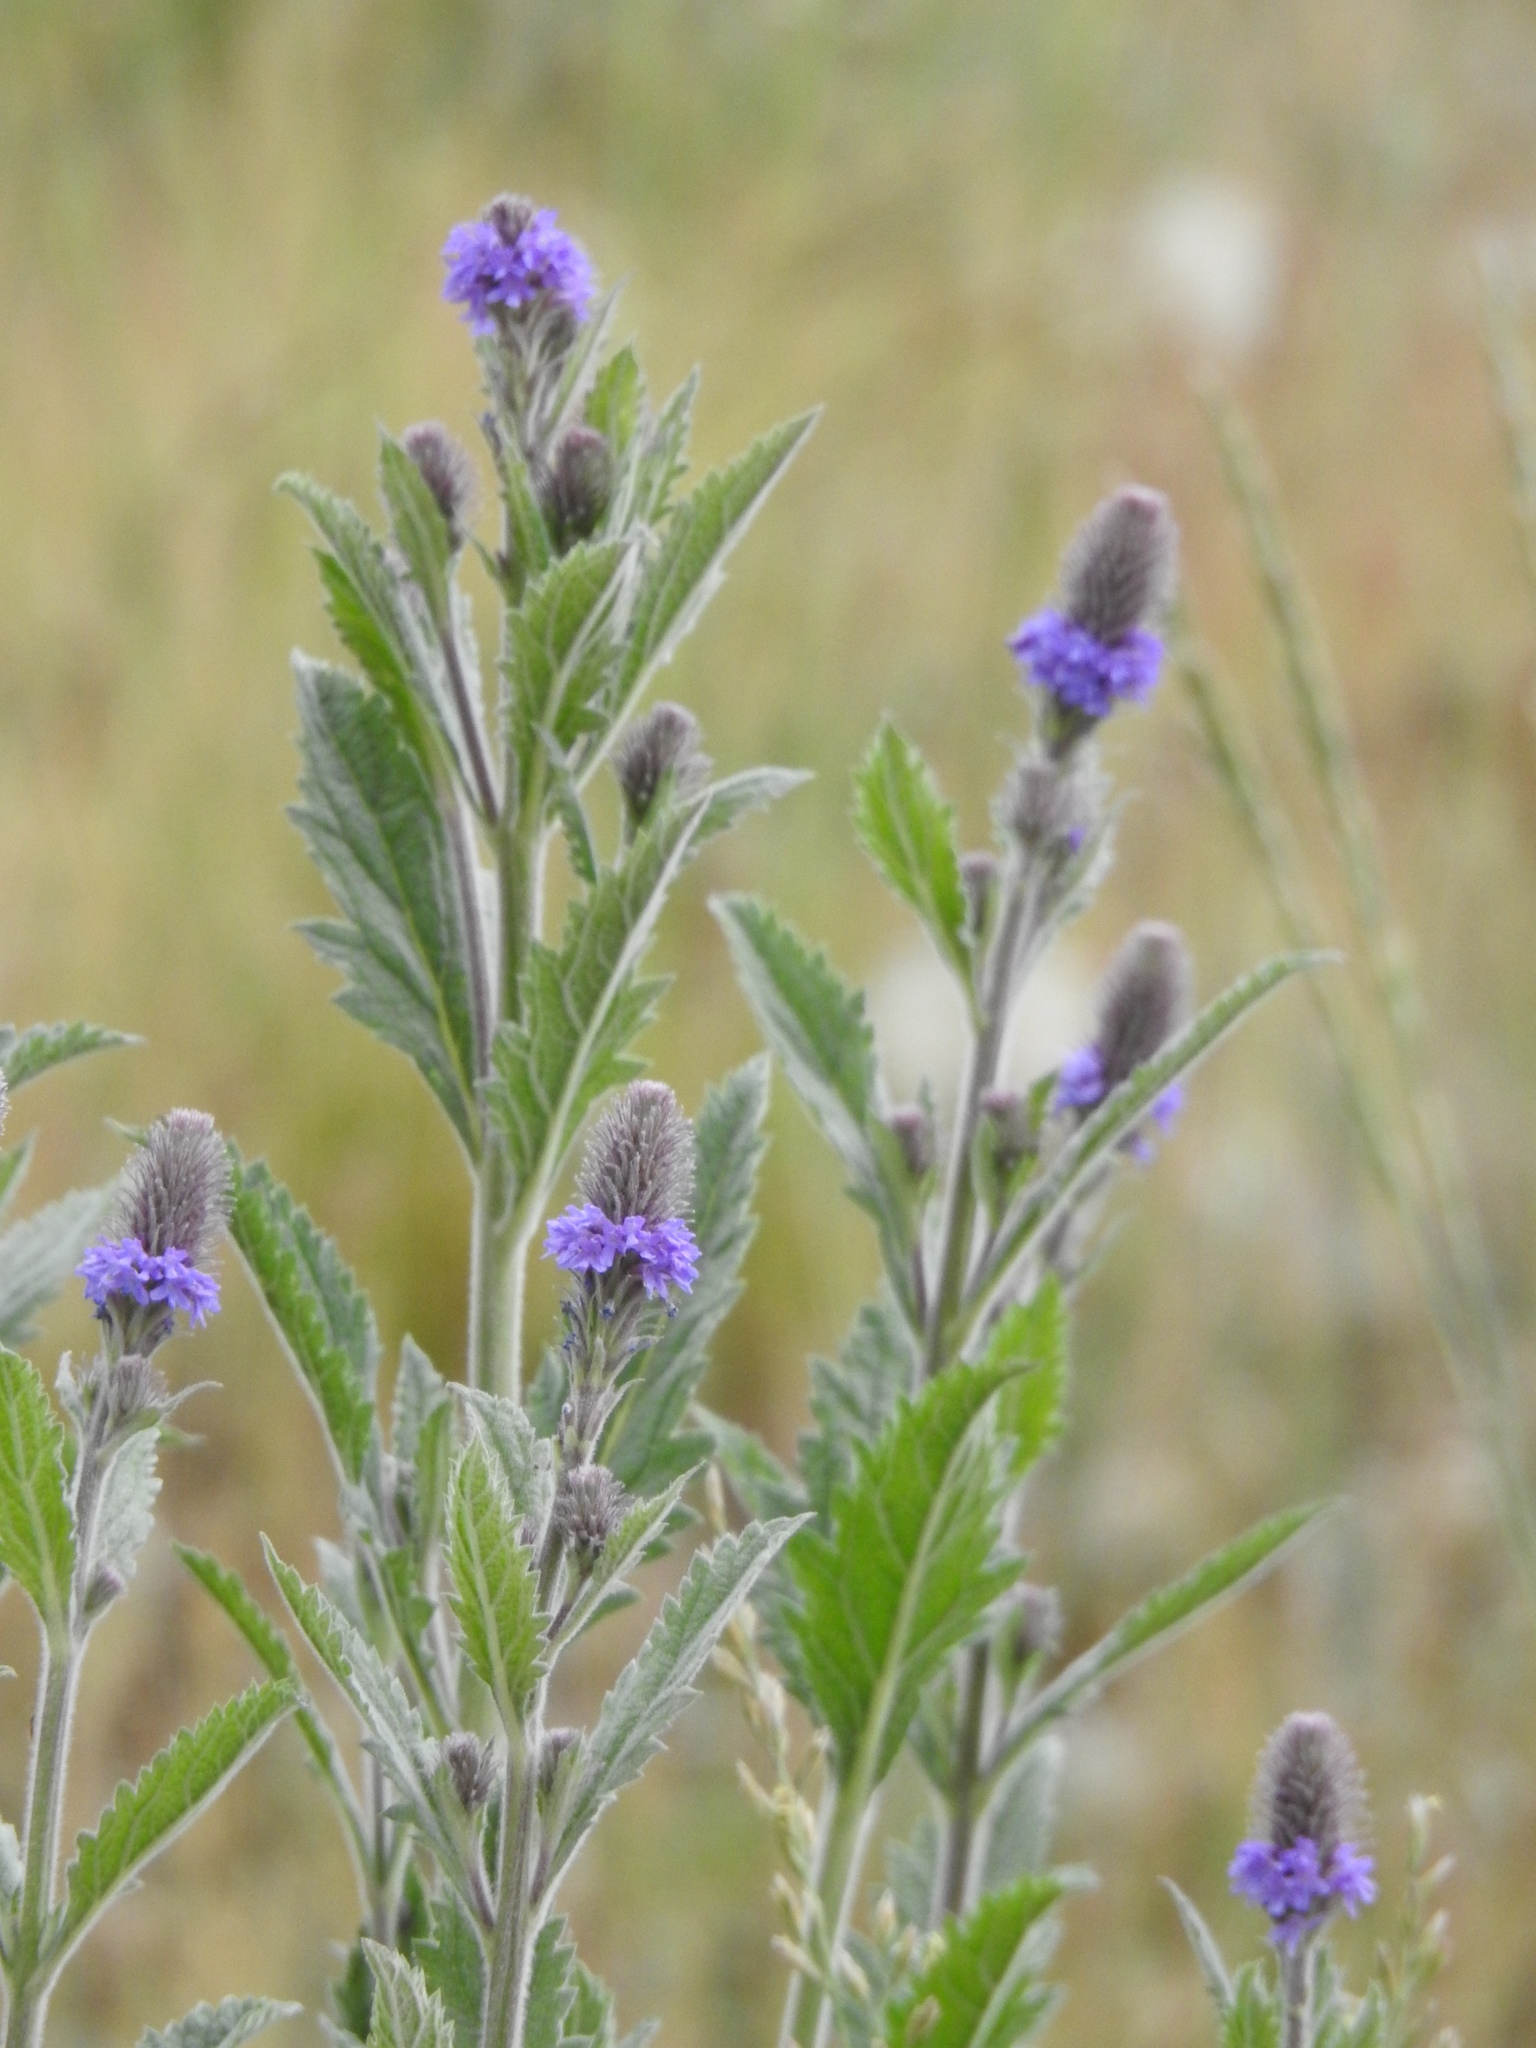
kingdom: Plantae
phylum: Tracheophyta
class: Magnoliopsida
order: Lamiales
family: Verbenaceae
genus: Verbena
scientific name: Verbena macdougalii
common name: New mexico vervain
